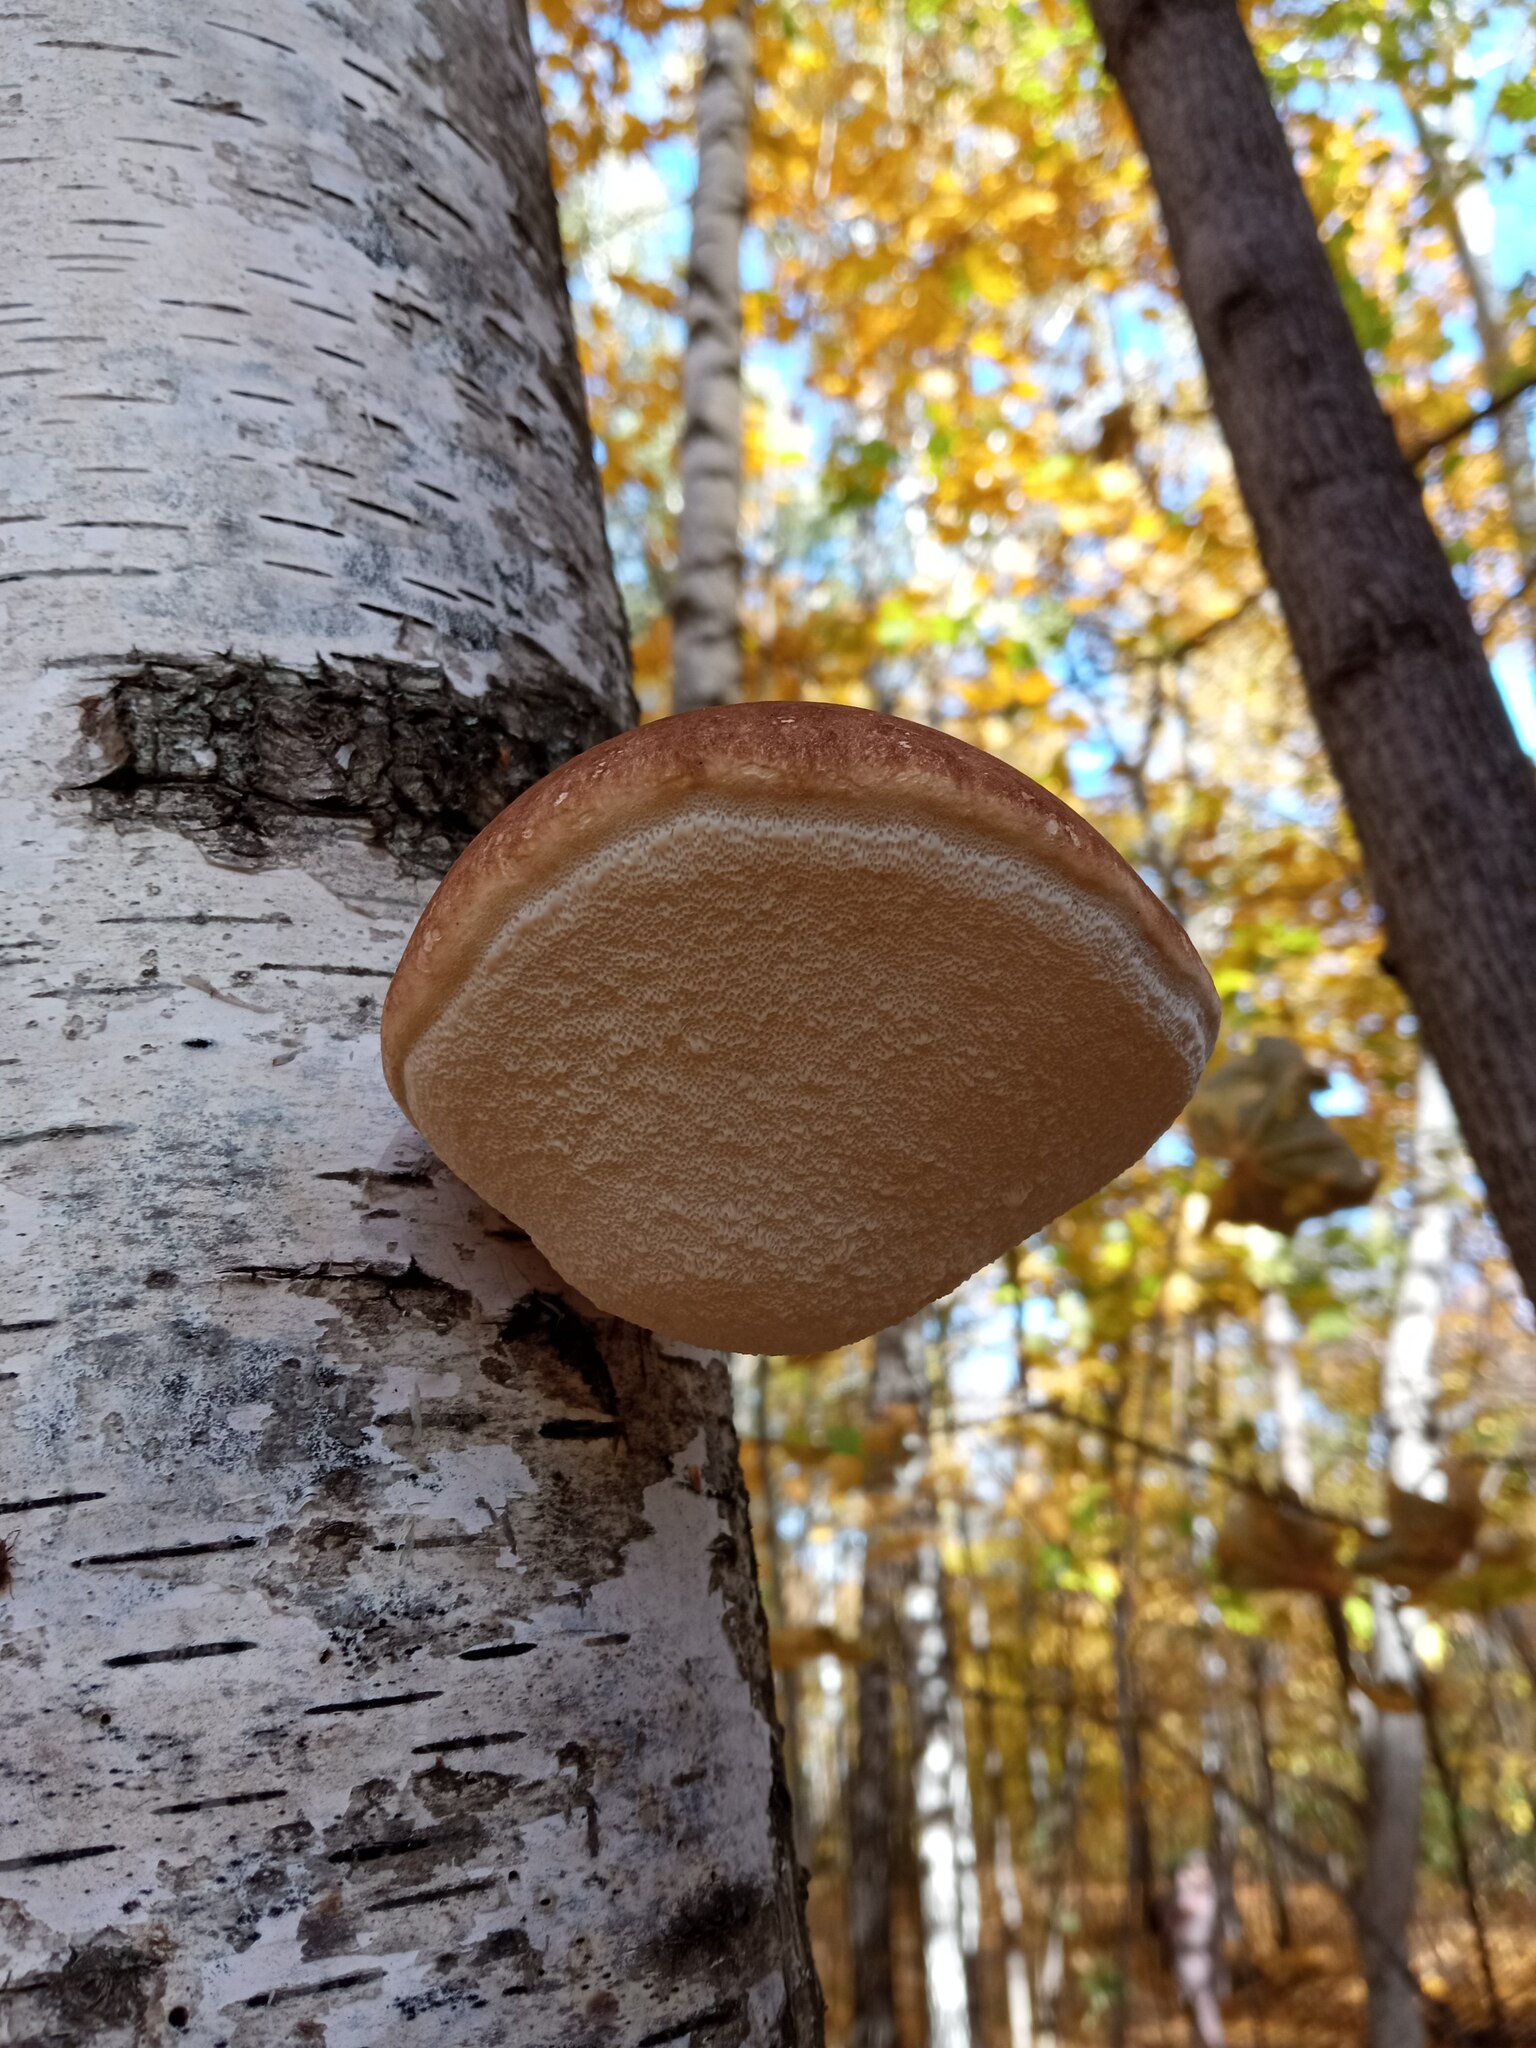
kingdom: Fungi
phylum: Basidiomycota
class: Agaricomycetes
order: Polyporales
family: Fomitopsidaceae
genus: Fomitopsis
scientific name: Fomitopsis betulina
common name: Birch polypore
